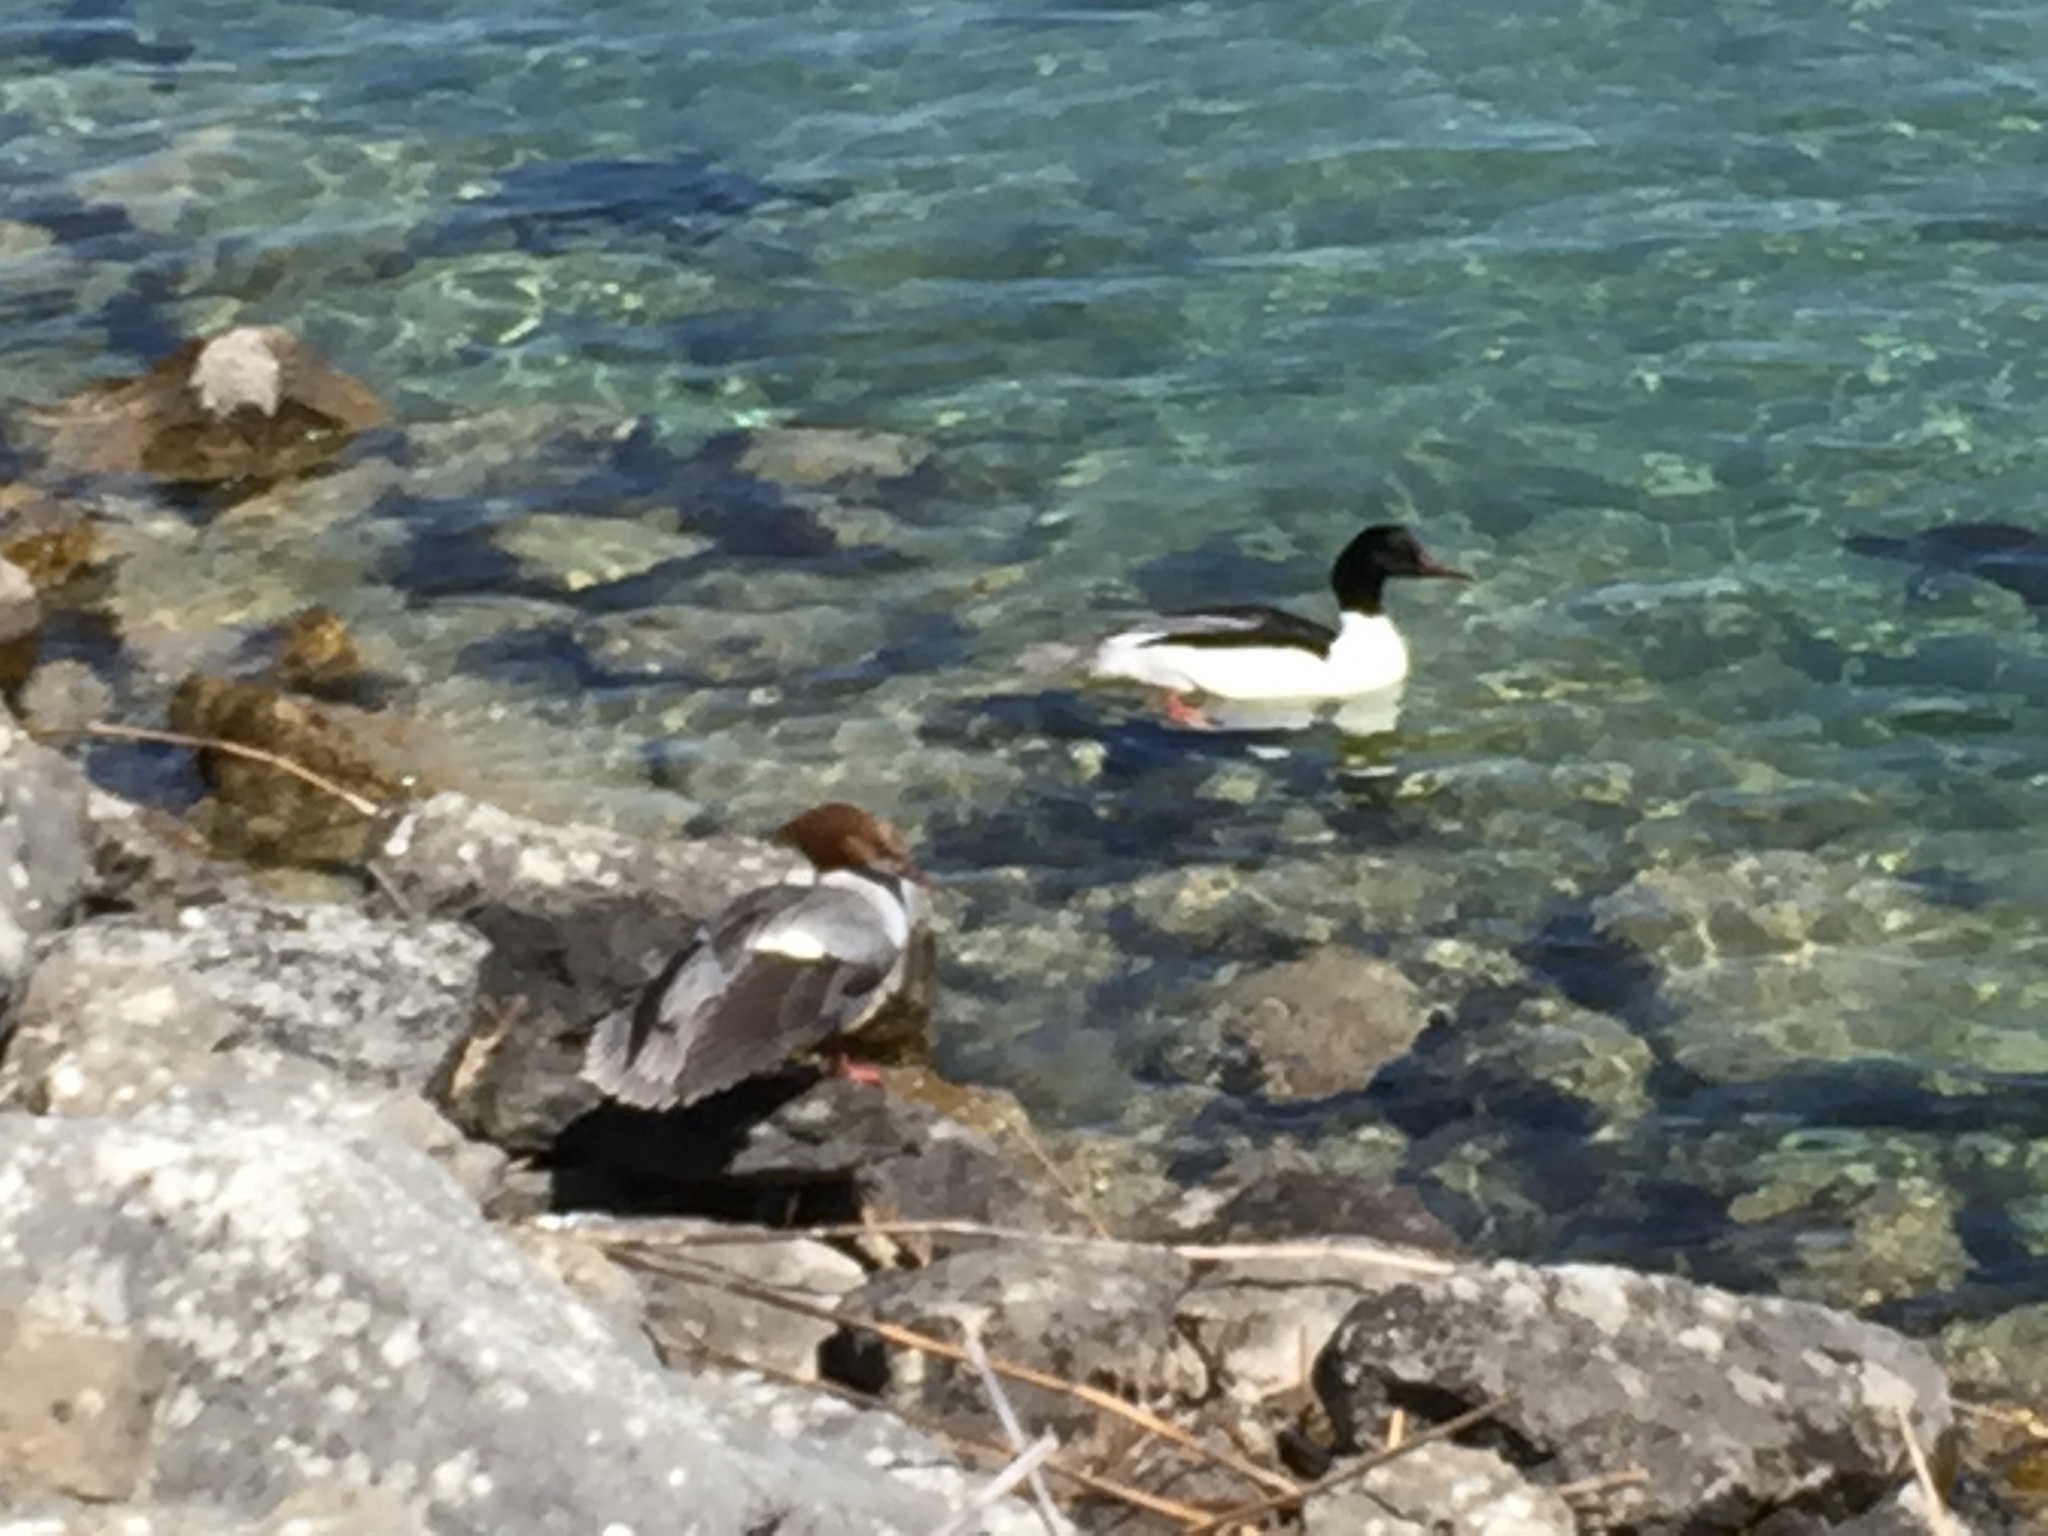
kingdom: Animalia
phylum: Chordata
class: Aves
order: Anseriformes
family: Anatidae
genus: Mergus
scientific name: Mergus merganser
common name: Common merganser
